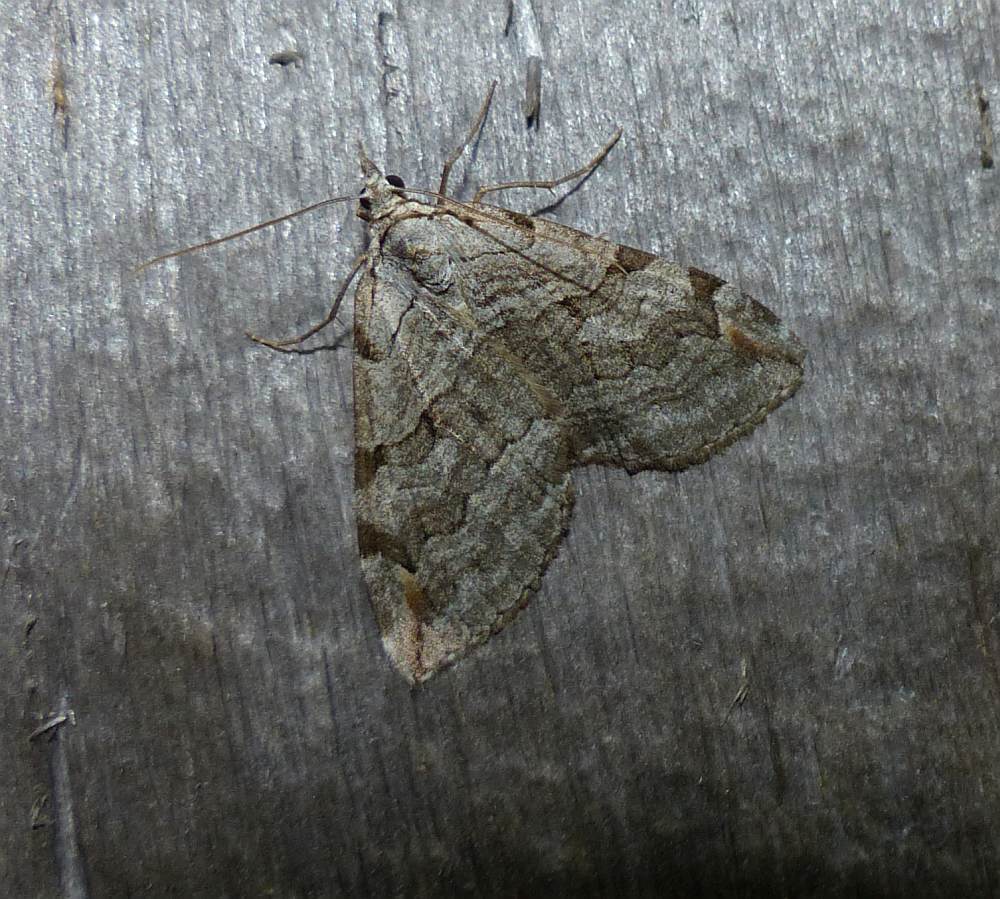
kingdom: Animalia
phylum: Arthropoda
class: Insecta
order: Lepidoptera
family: Geometridae
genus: Aplocera
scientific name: Aplocera plagiata
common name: Treble-bar
